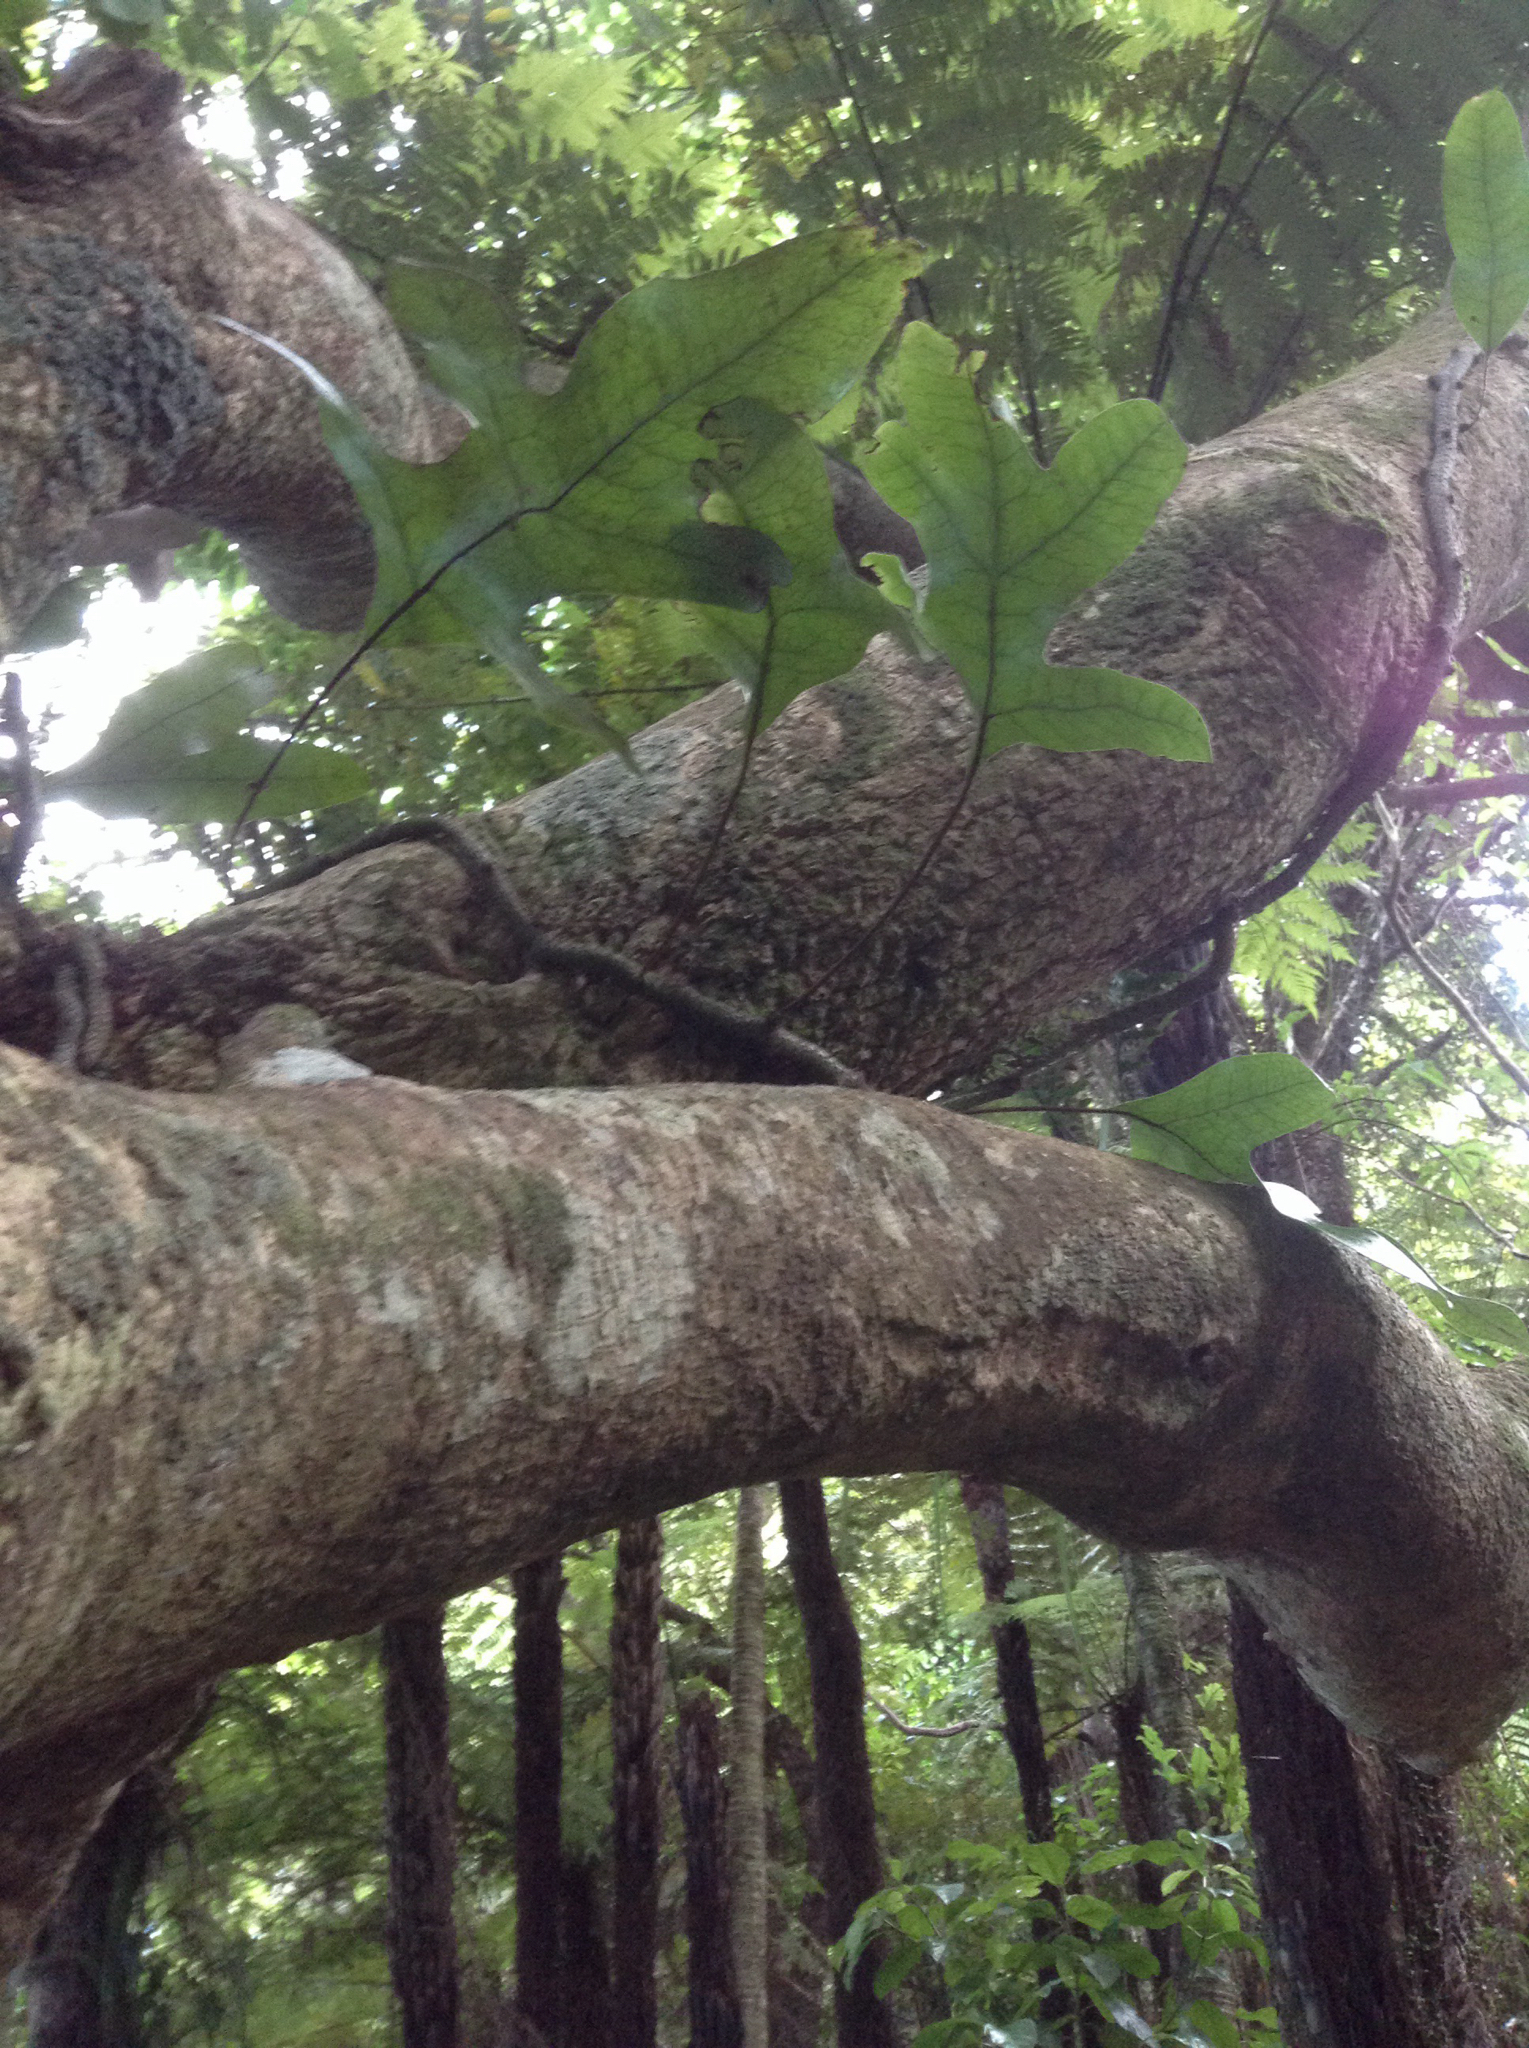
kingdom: Plantae
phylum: Tracheophyta
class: Polypodiopsida
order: Polypodiales
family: Polypodiaceae
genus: Lecanopteris
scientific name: Lecanopteris pustulata
